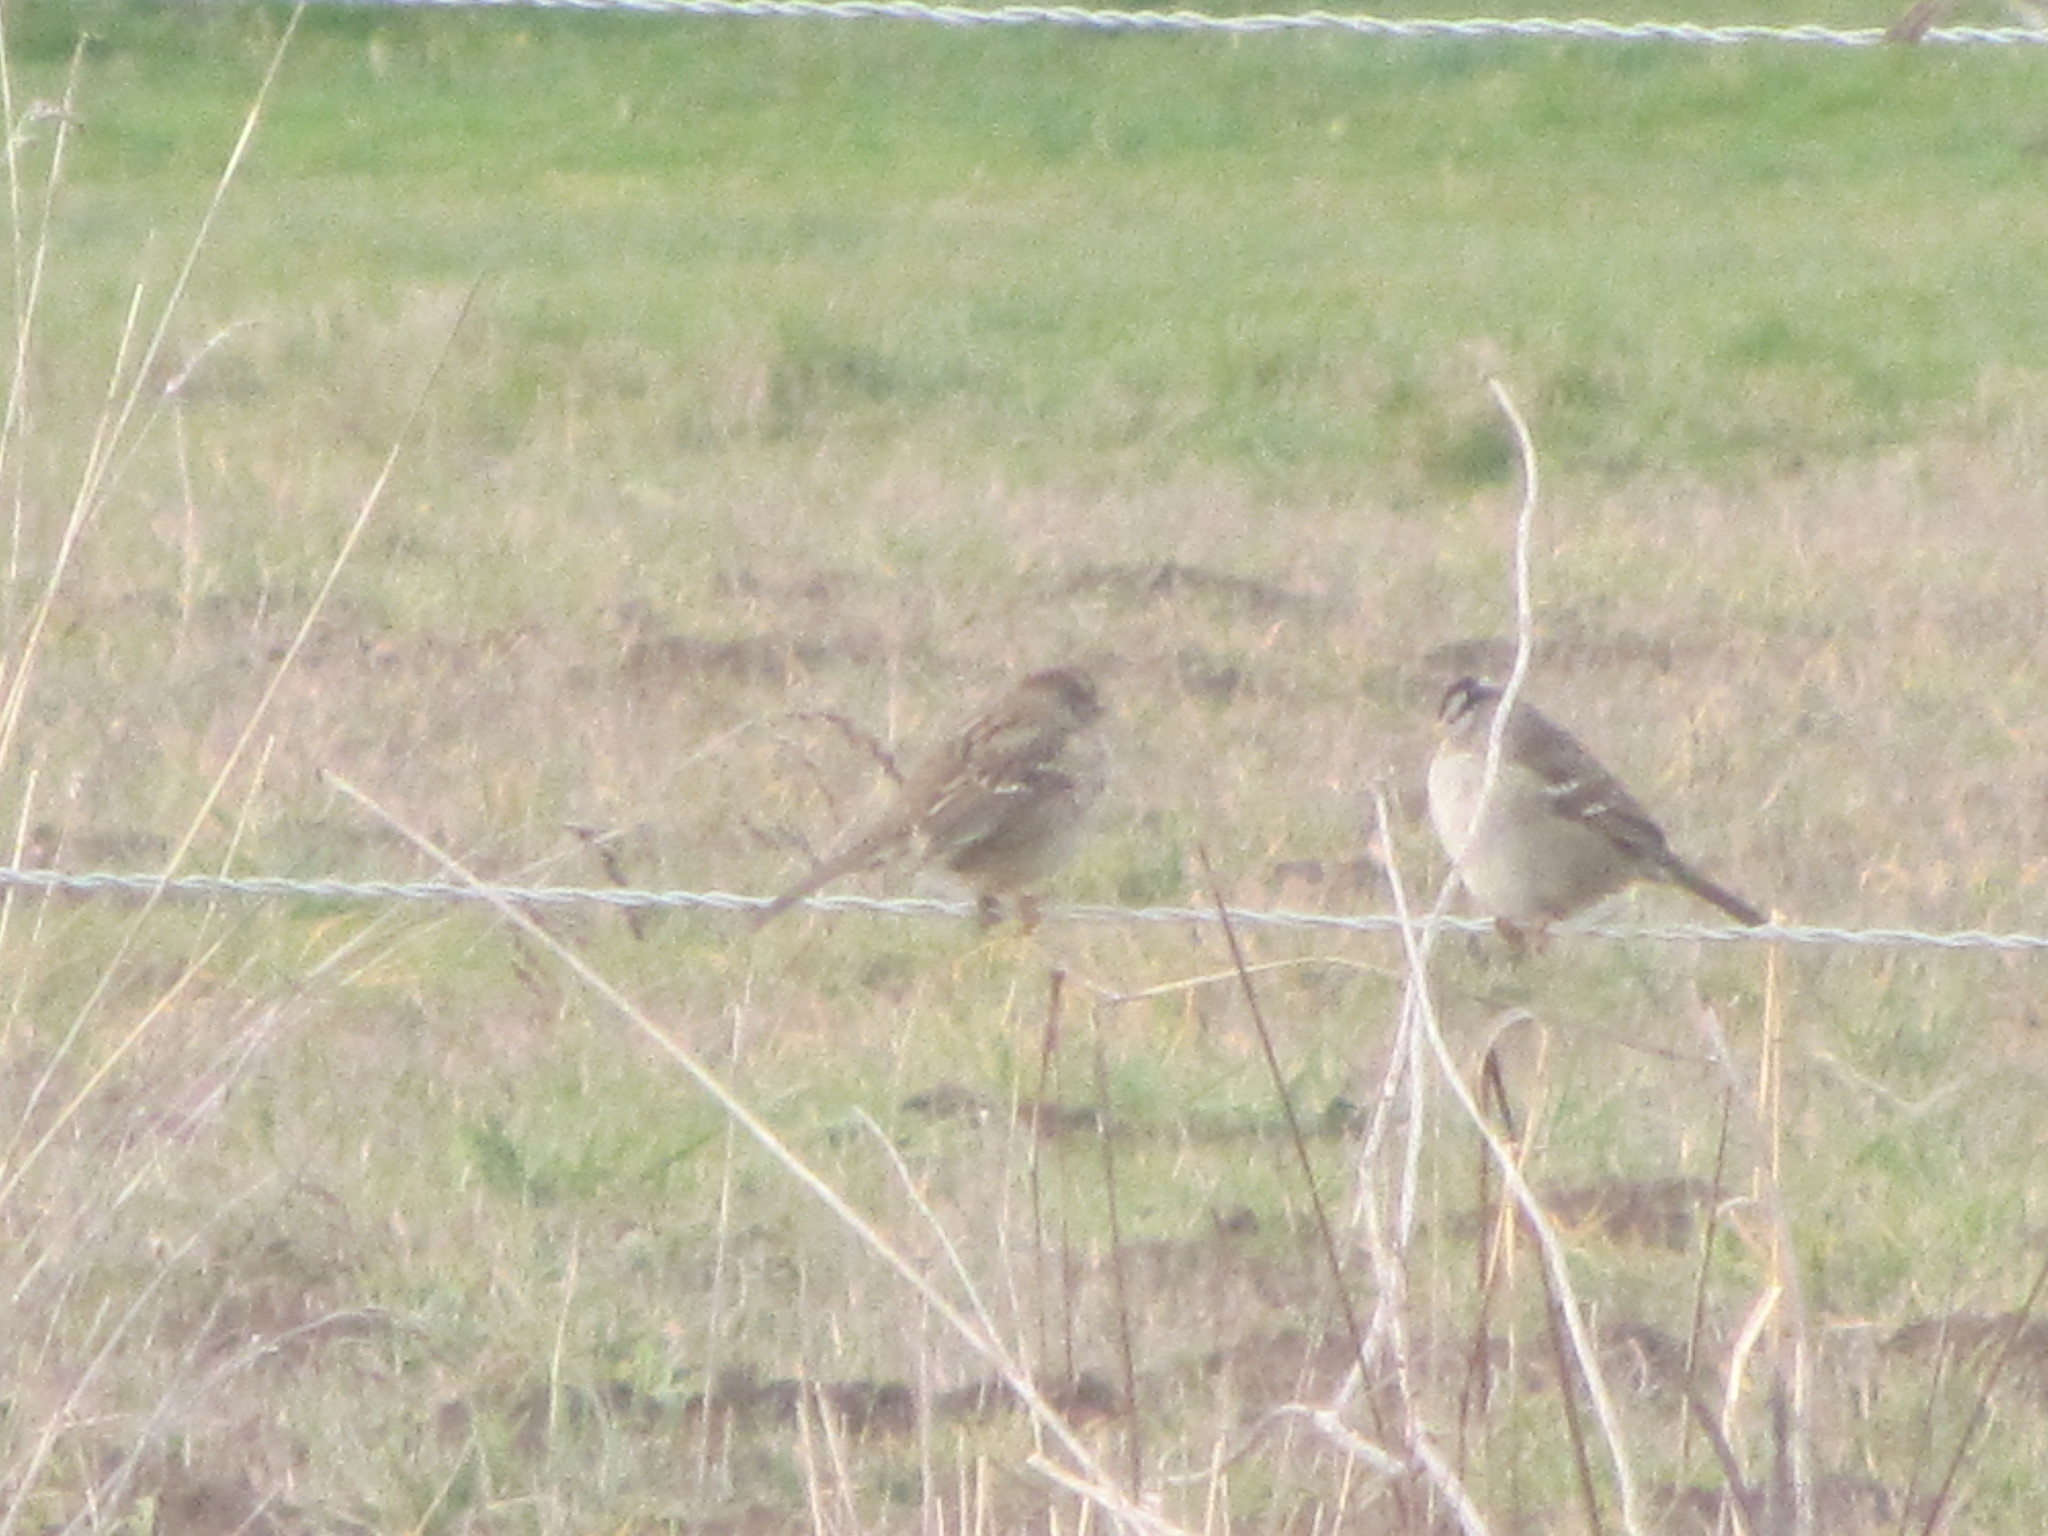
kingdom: Animalia
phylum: Chordata
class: Aves
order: Passeriformes
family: Passerellidae
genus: Zonotrichia
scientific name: Zonotrichia leucophrys
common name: White-crowned sparrow
